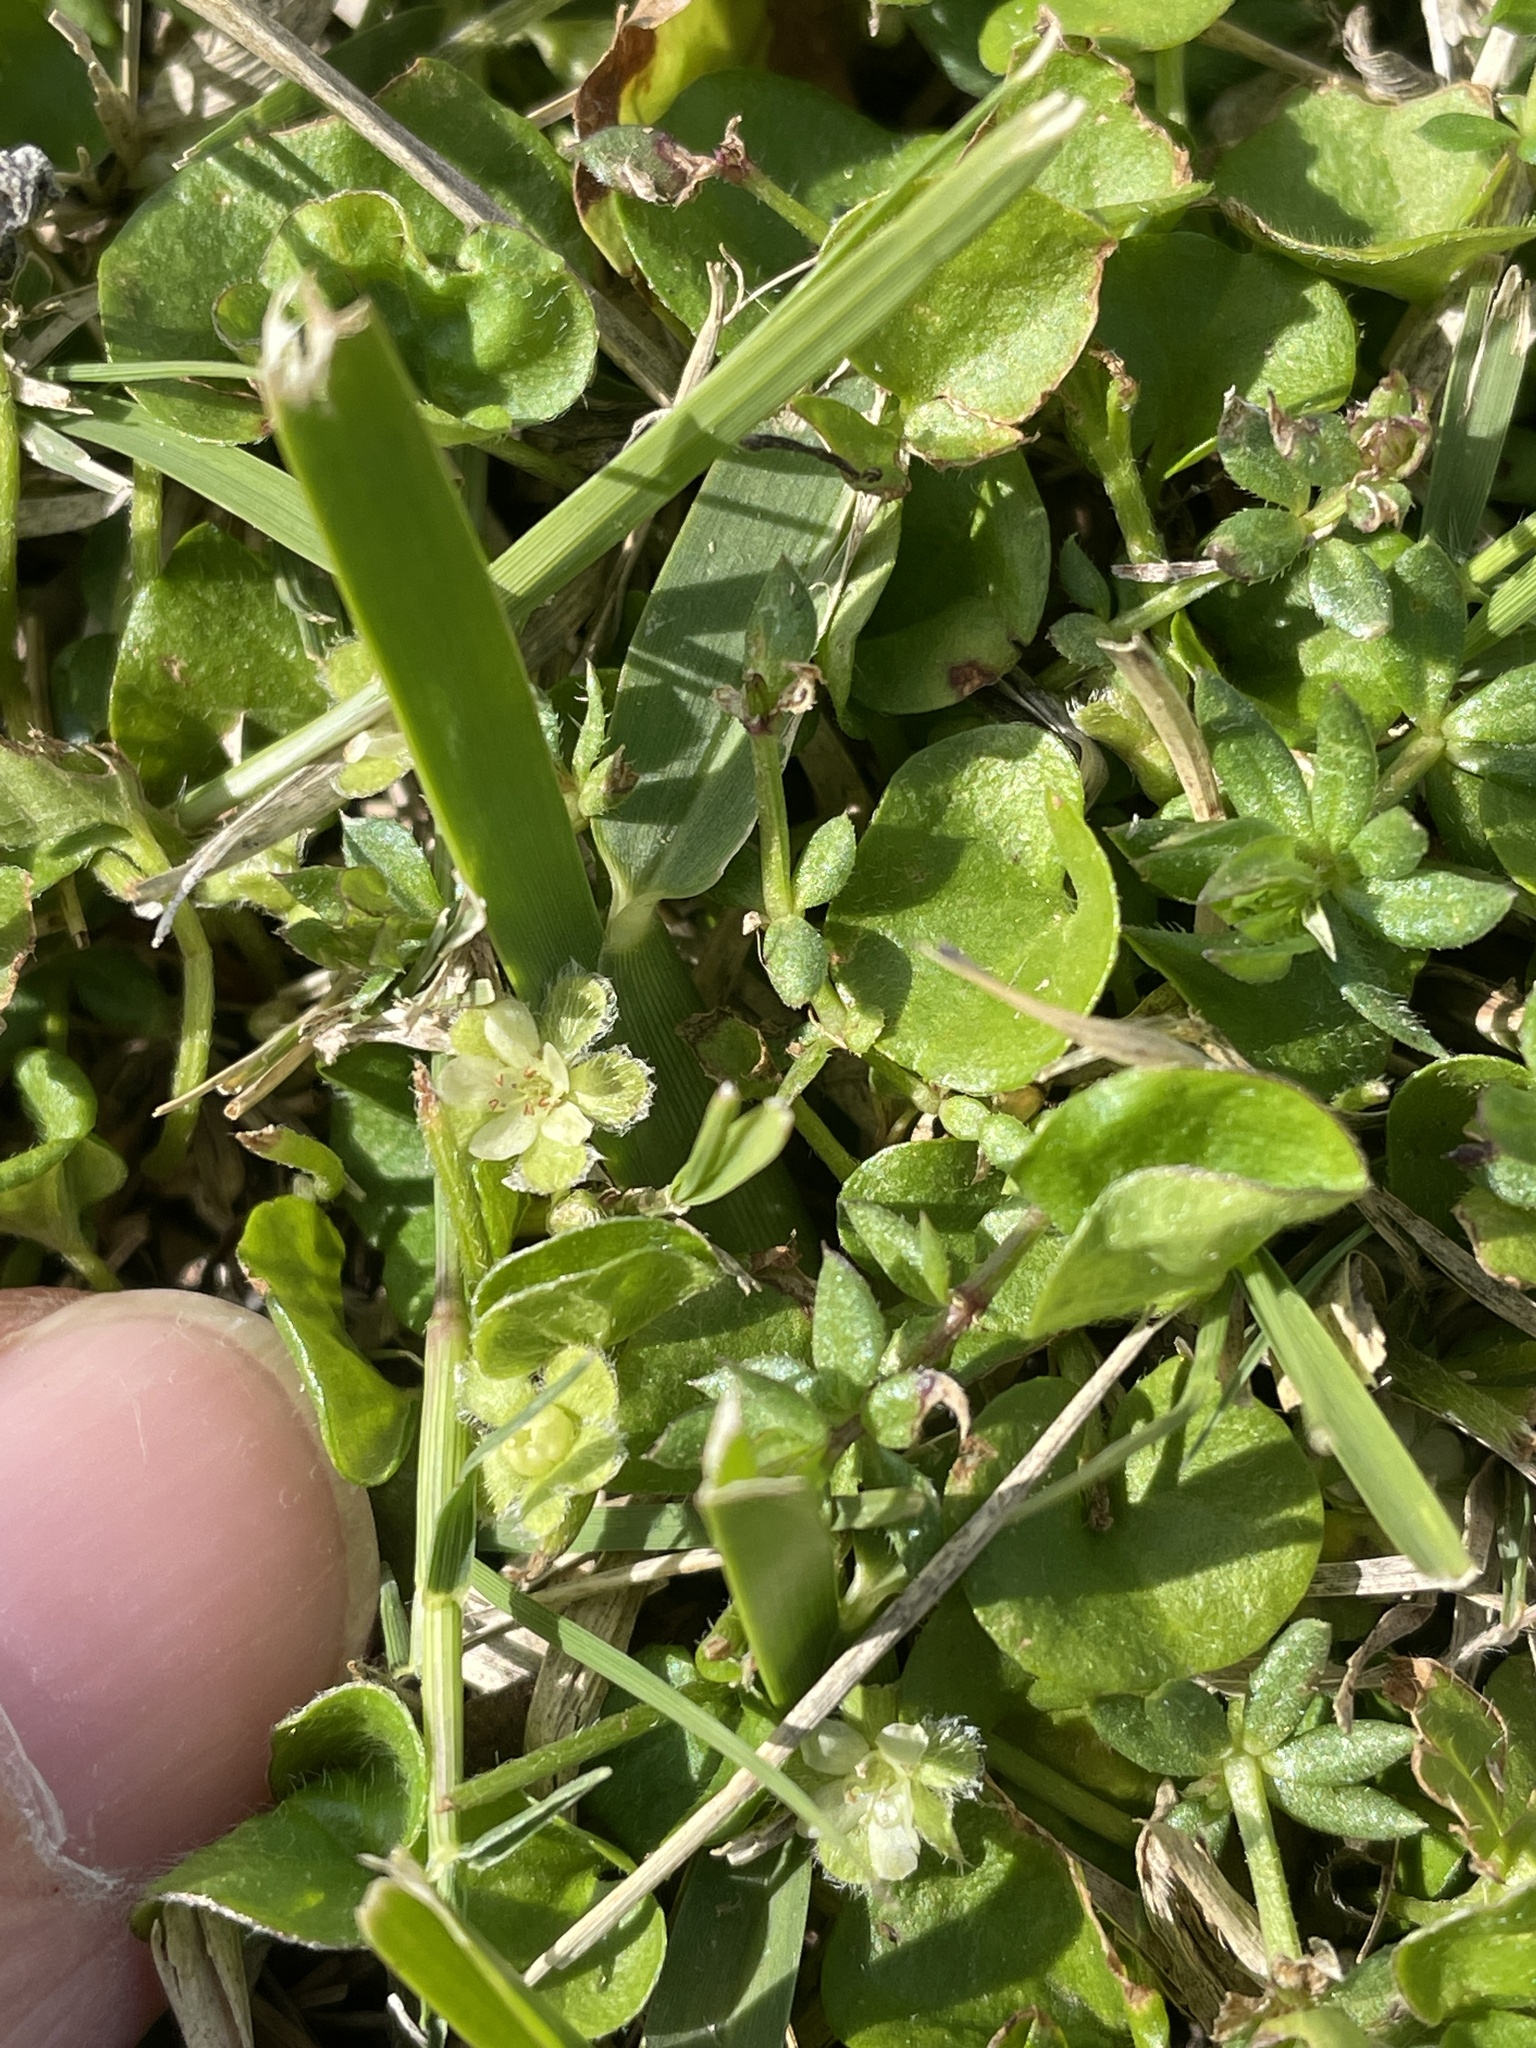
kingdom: Plantae
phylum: Tracheophyta
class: Magnoliopsida
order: Solanales
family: Convolvulaceae
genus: Dichondra
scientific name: Dichondra carolinensis
